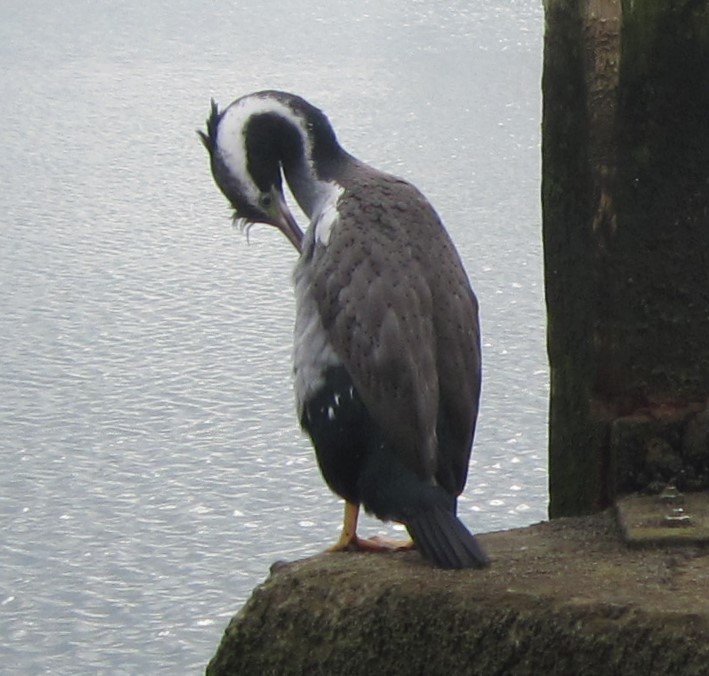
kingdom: Animalia
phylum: Chordata
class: Aves
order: Suliformes
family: Phalacrocoracidae
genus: Phalacrocorax
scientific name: Phalacrocorax punctatus
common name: Spotted shag
